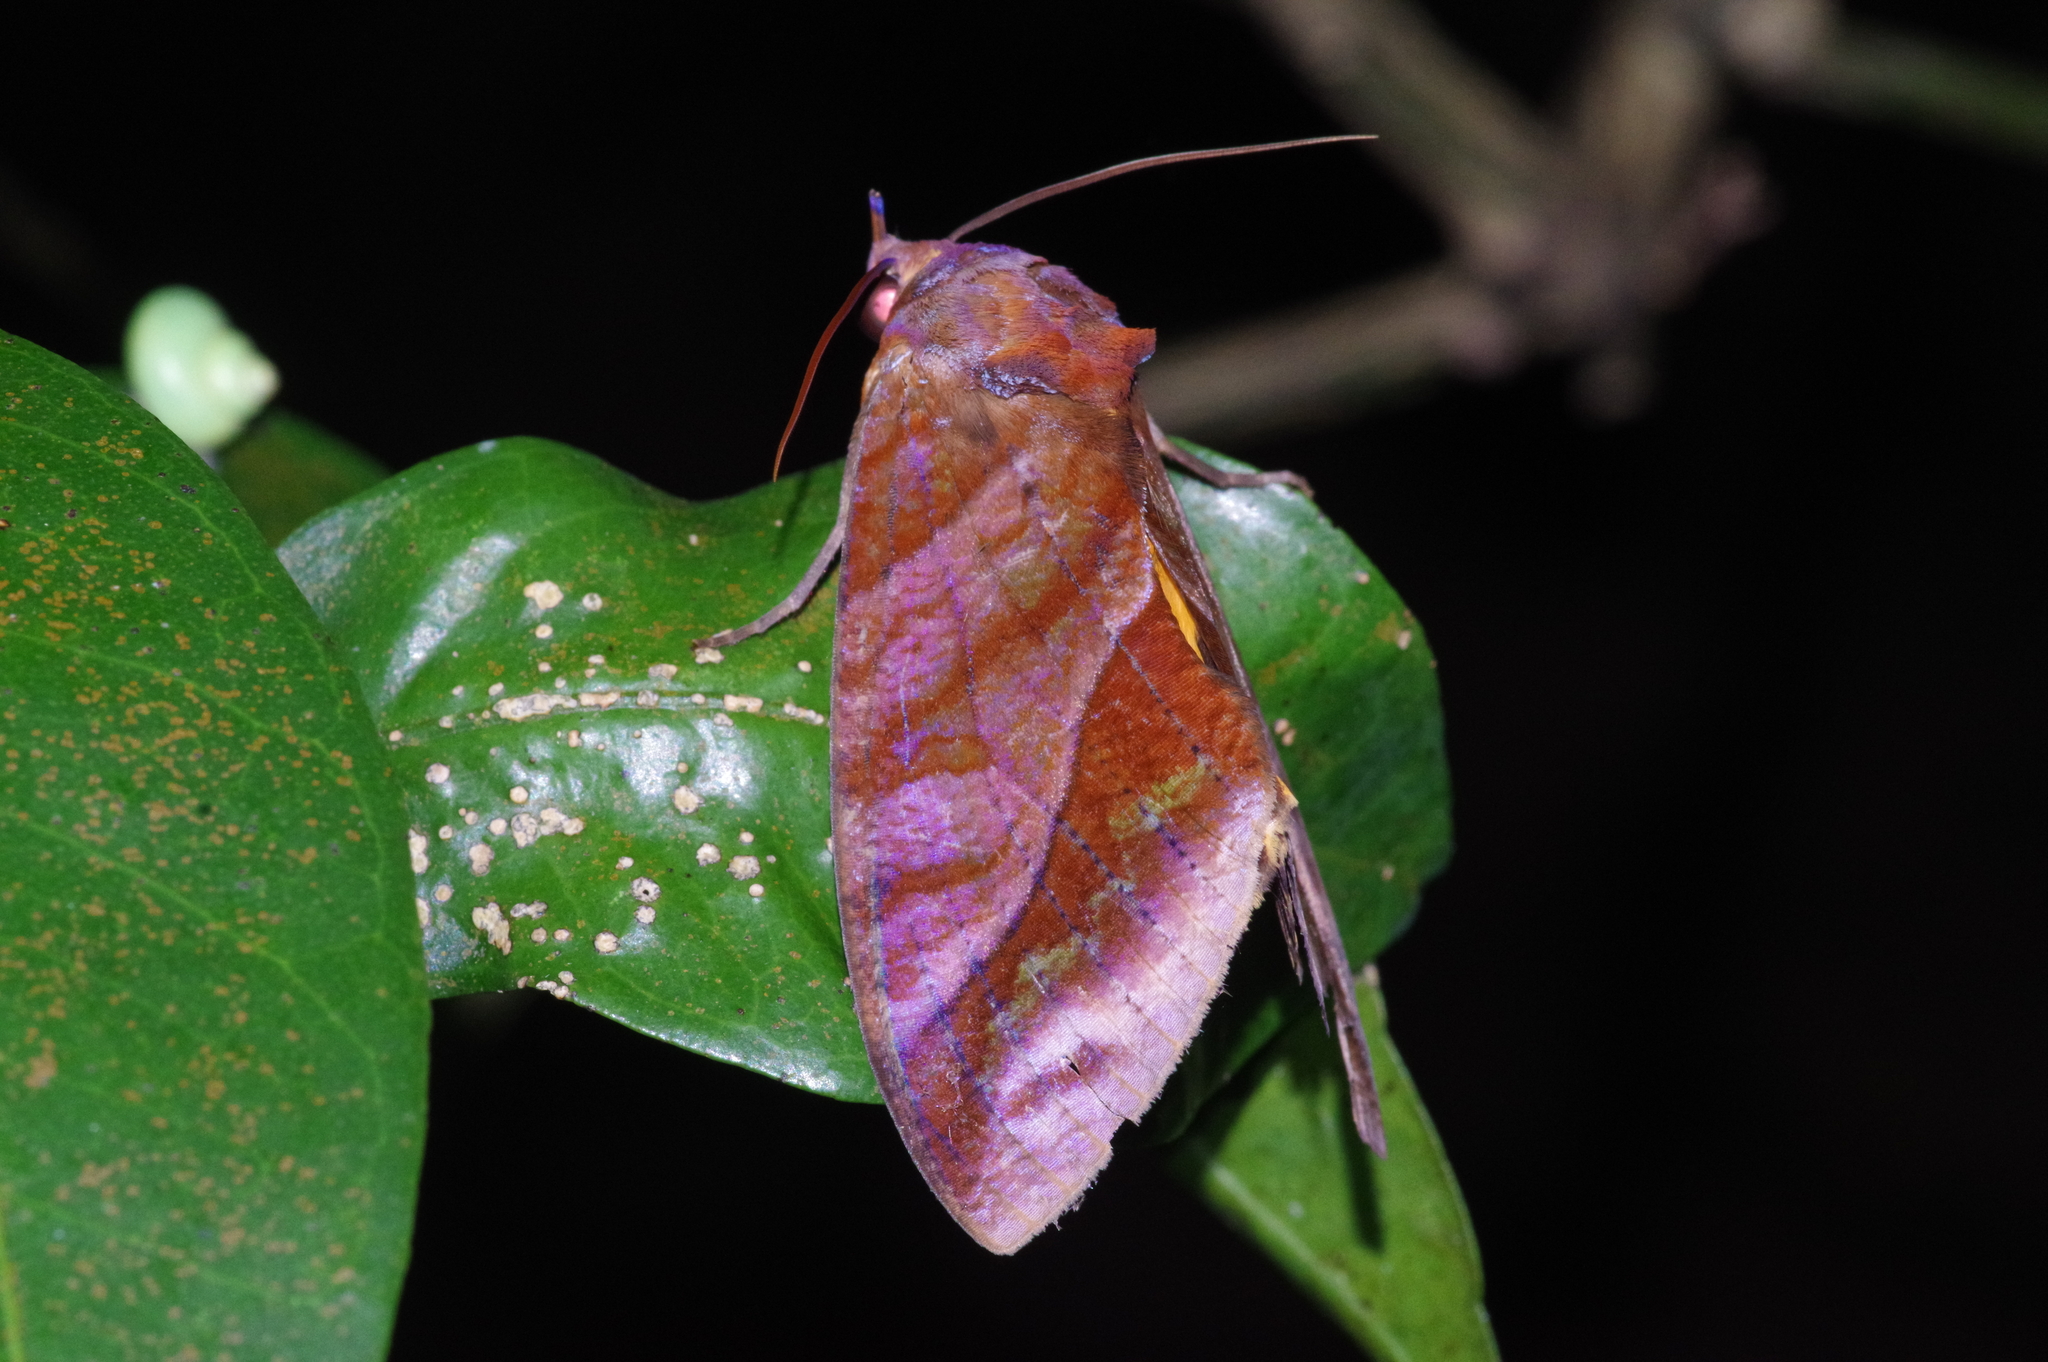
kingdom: Animalia
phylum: Arthropoda
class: Insecta
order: Lepidoptera
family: Erebidae
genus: Eudocima
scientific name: Eudocima homaena
